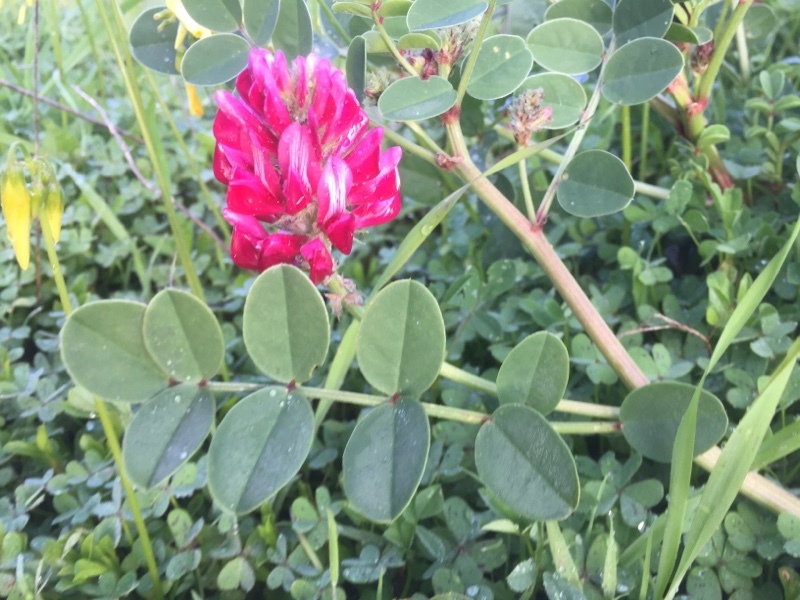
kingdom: Plantae
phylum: Tracheophyta
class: Magnoliopsida
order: Fabales
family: Fabaceae
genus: Sulla
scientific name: Sulla coronaria
